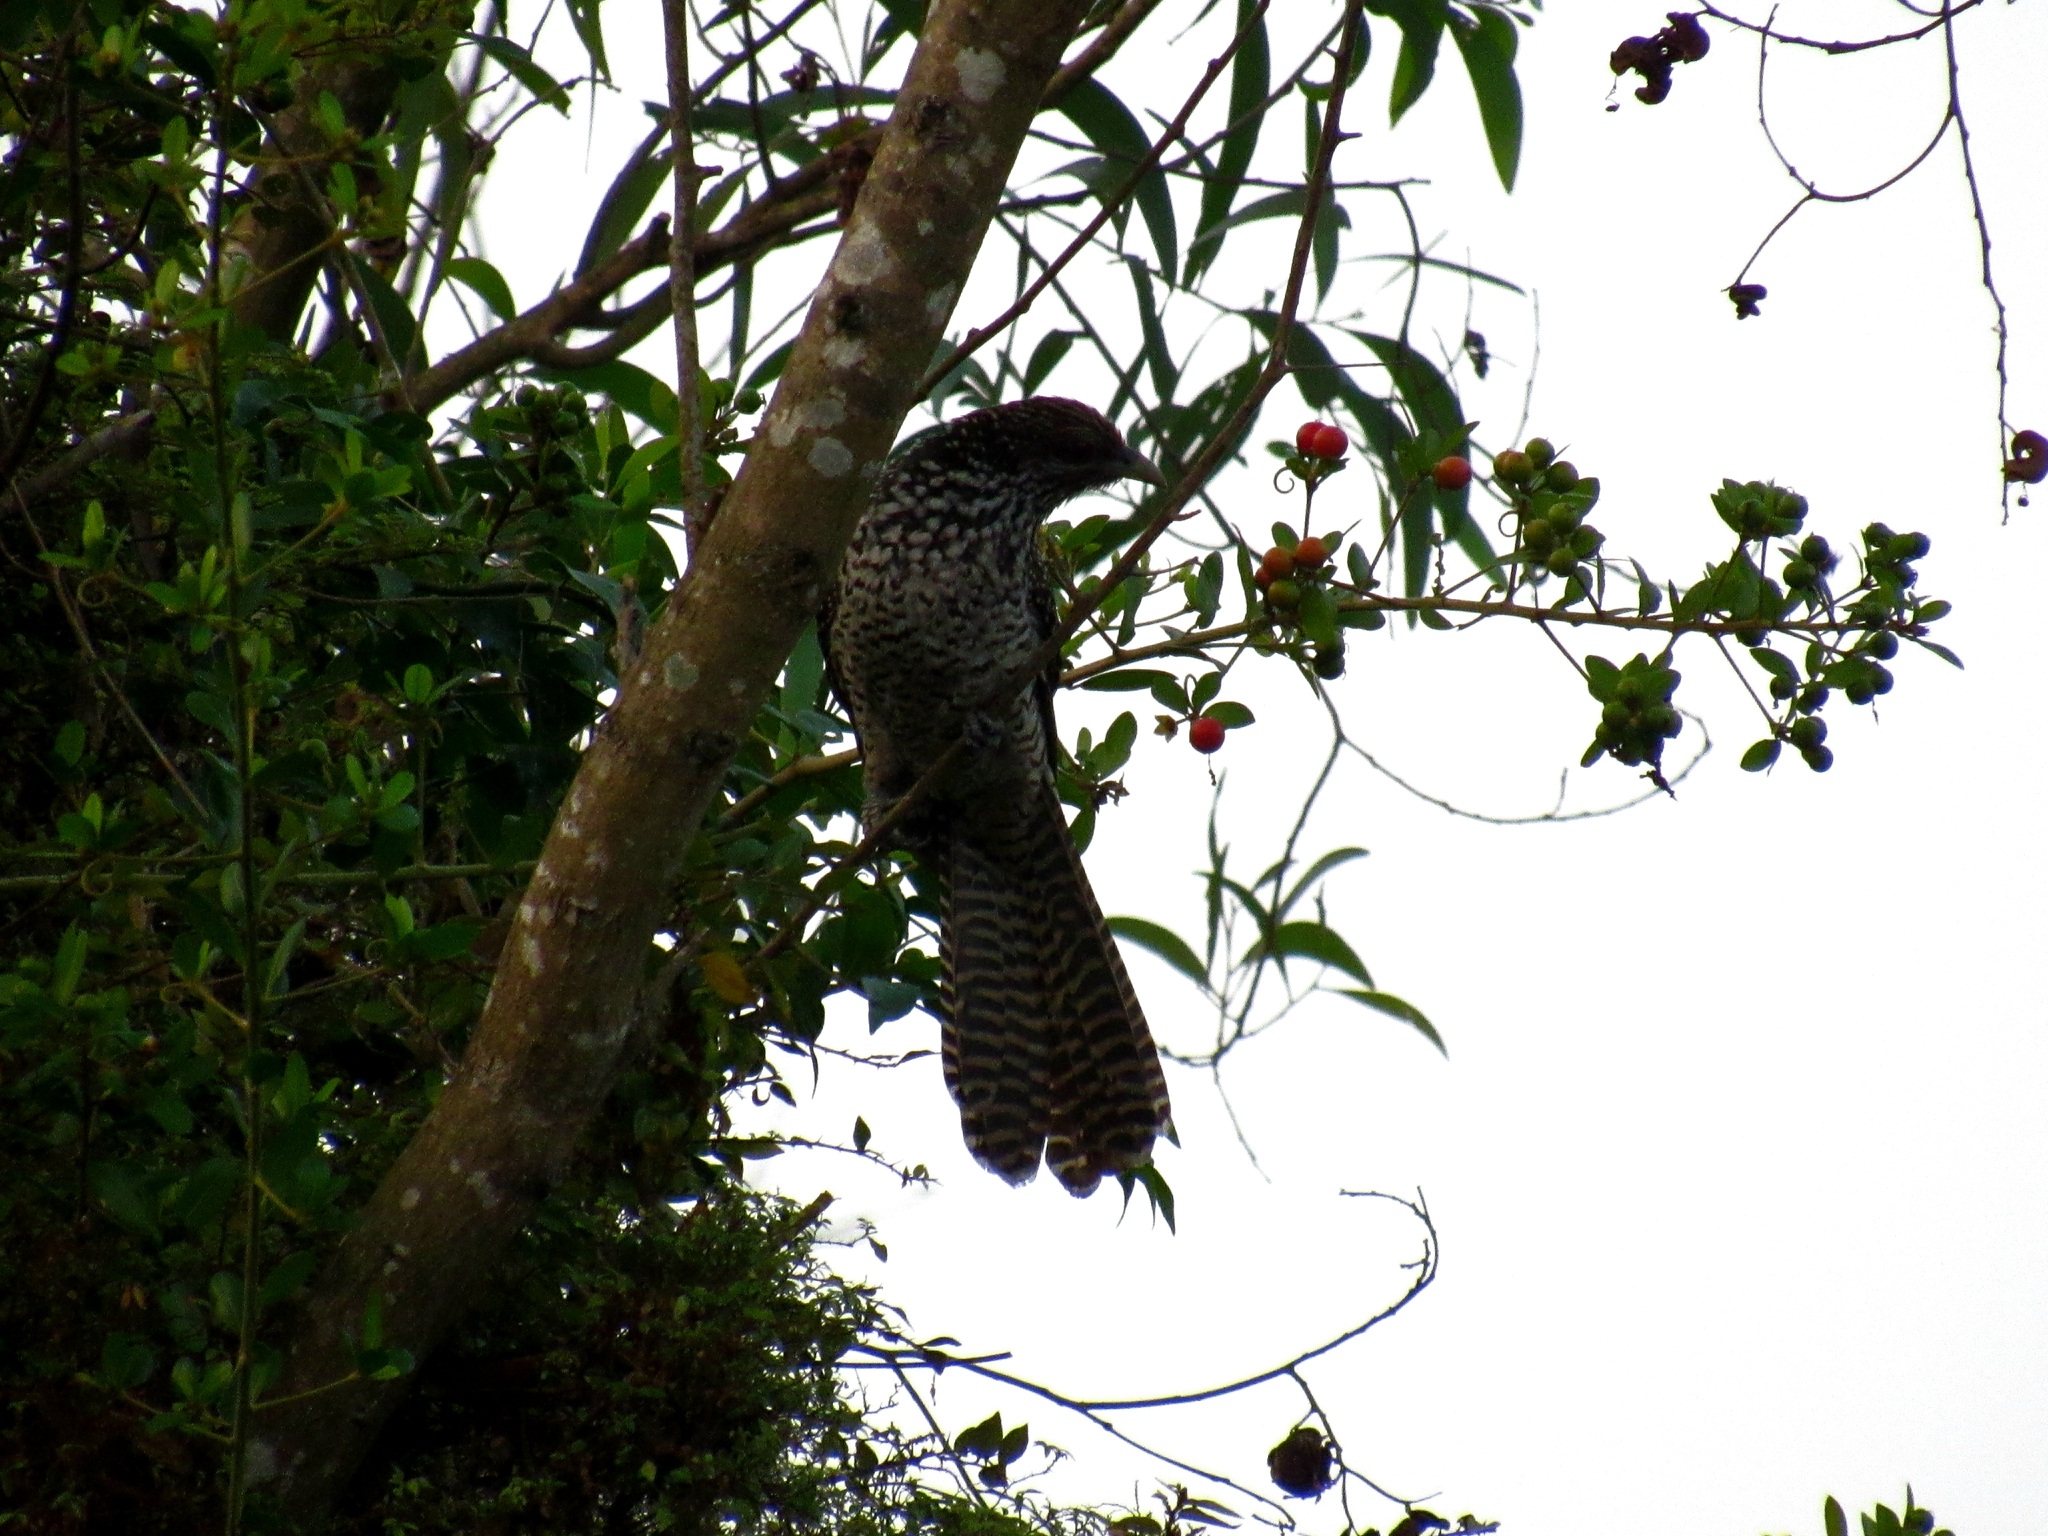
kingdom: Animalia
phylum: Chordata
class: Aves
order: Cuculiformes
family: Cuculidae
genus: Eudynamys
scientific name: Eudynamys scolopaceus
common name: Asian koel
